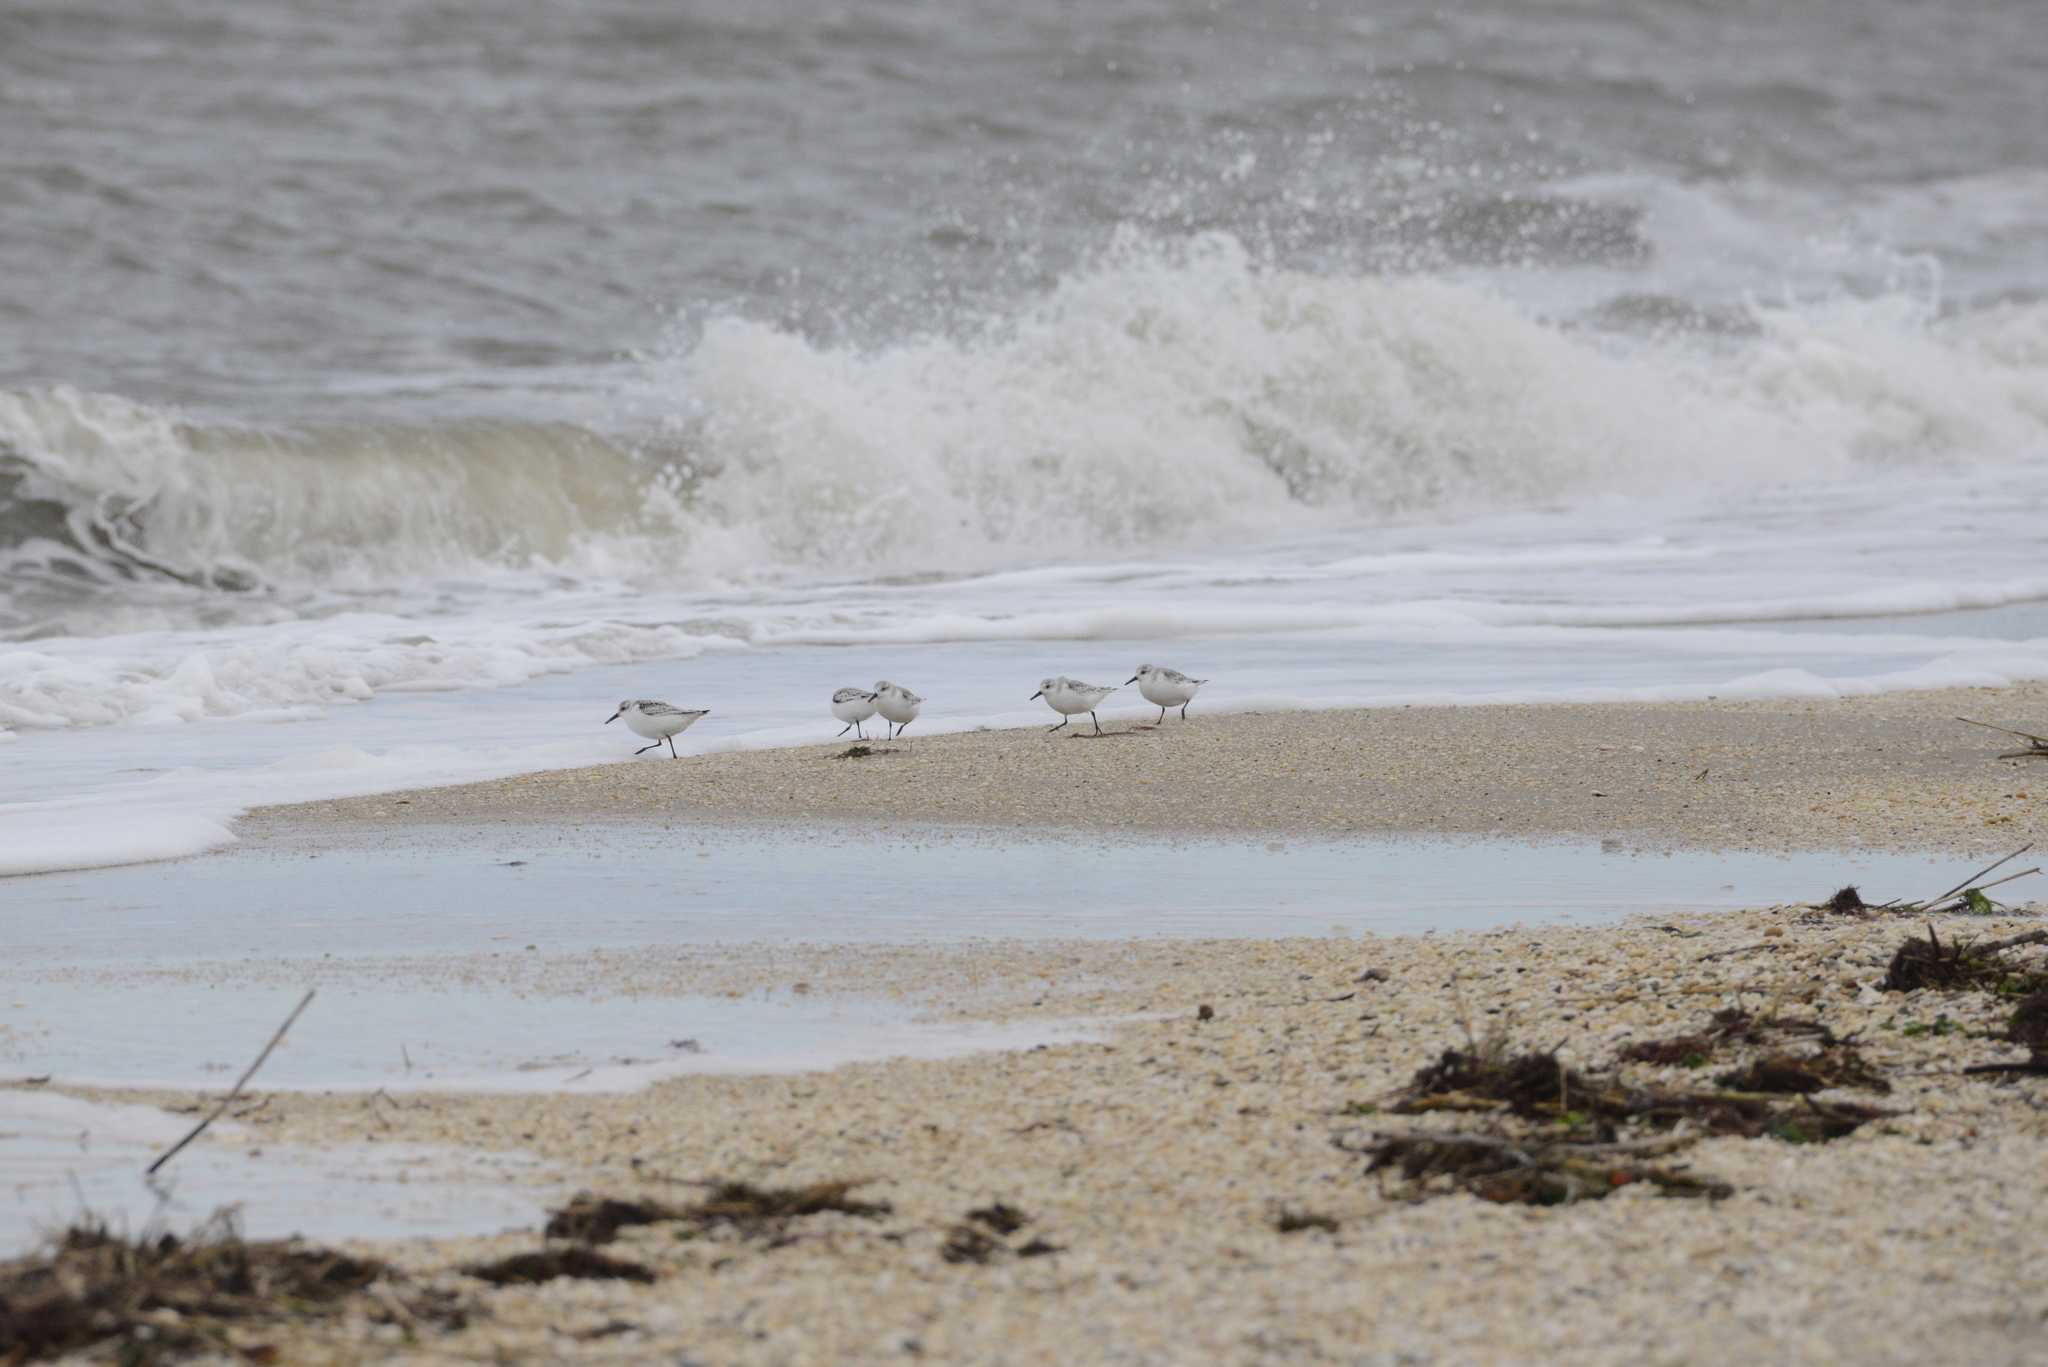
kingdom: Animalia
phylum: Chordata
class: Aves
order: Charadriiformes
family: Scolopacidae
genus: Calidris
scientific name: Calidris alba
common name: Sanderling
